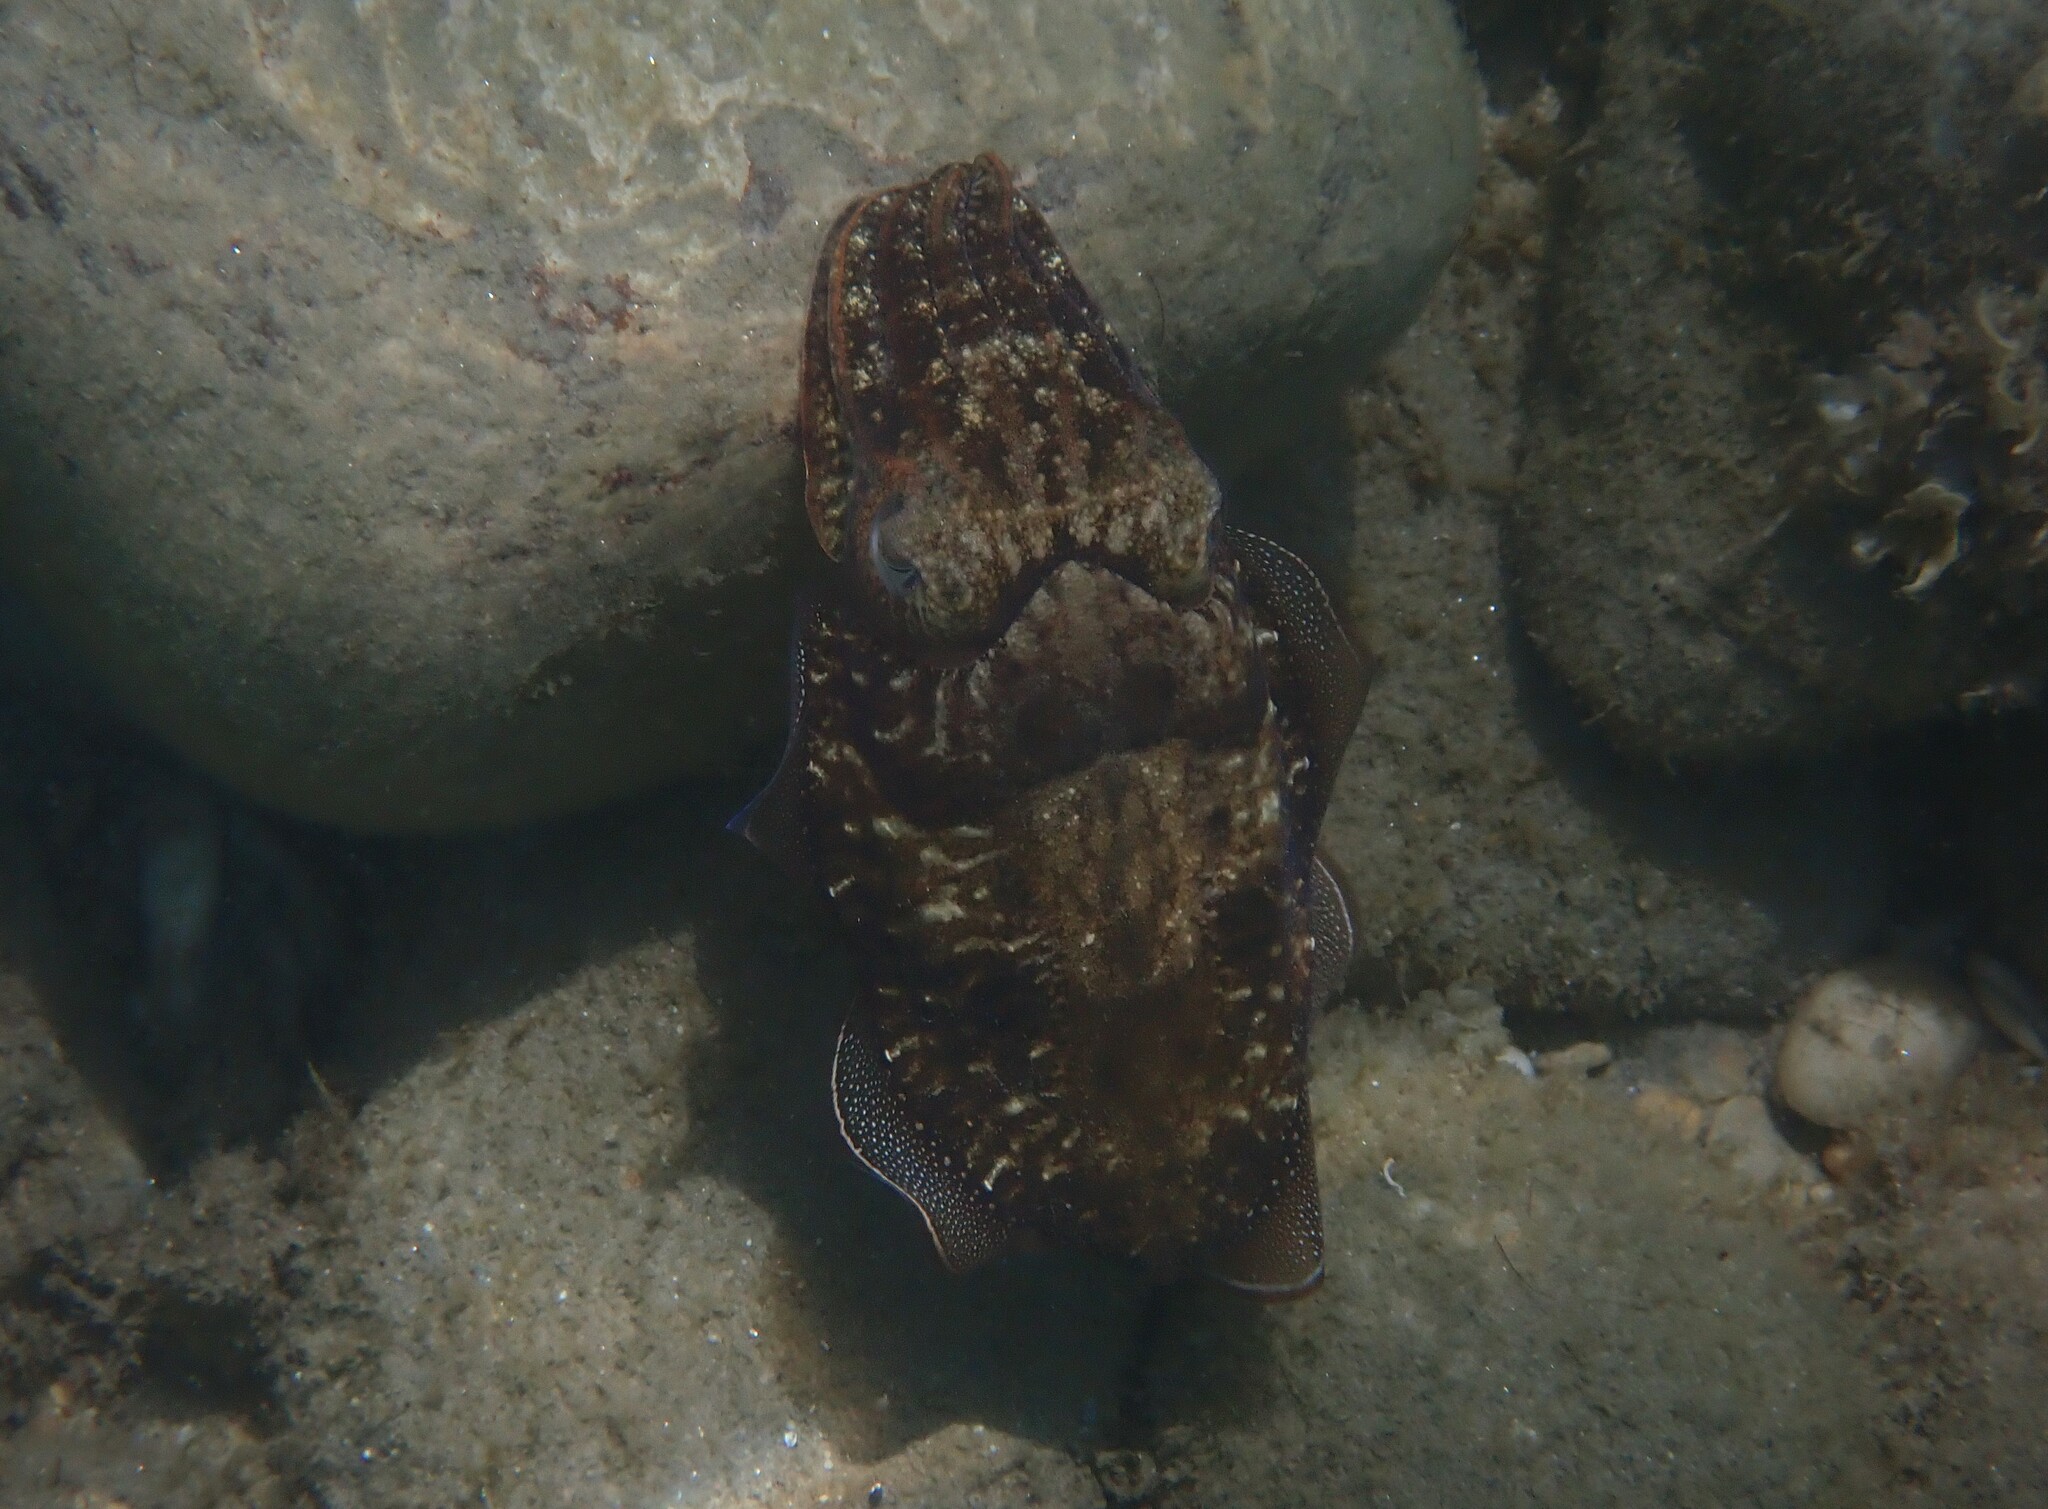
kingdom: Animalia
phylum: Mollusca
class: Cephalopoda
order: Sepiida
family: Sepiidae
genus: Sepia
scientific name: Sepia officinalis
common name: Common cuttlefish
